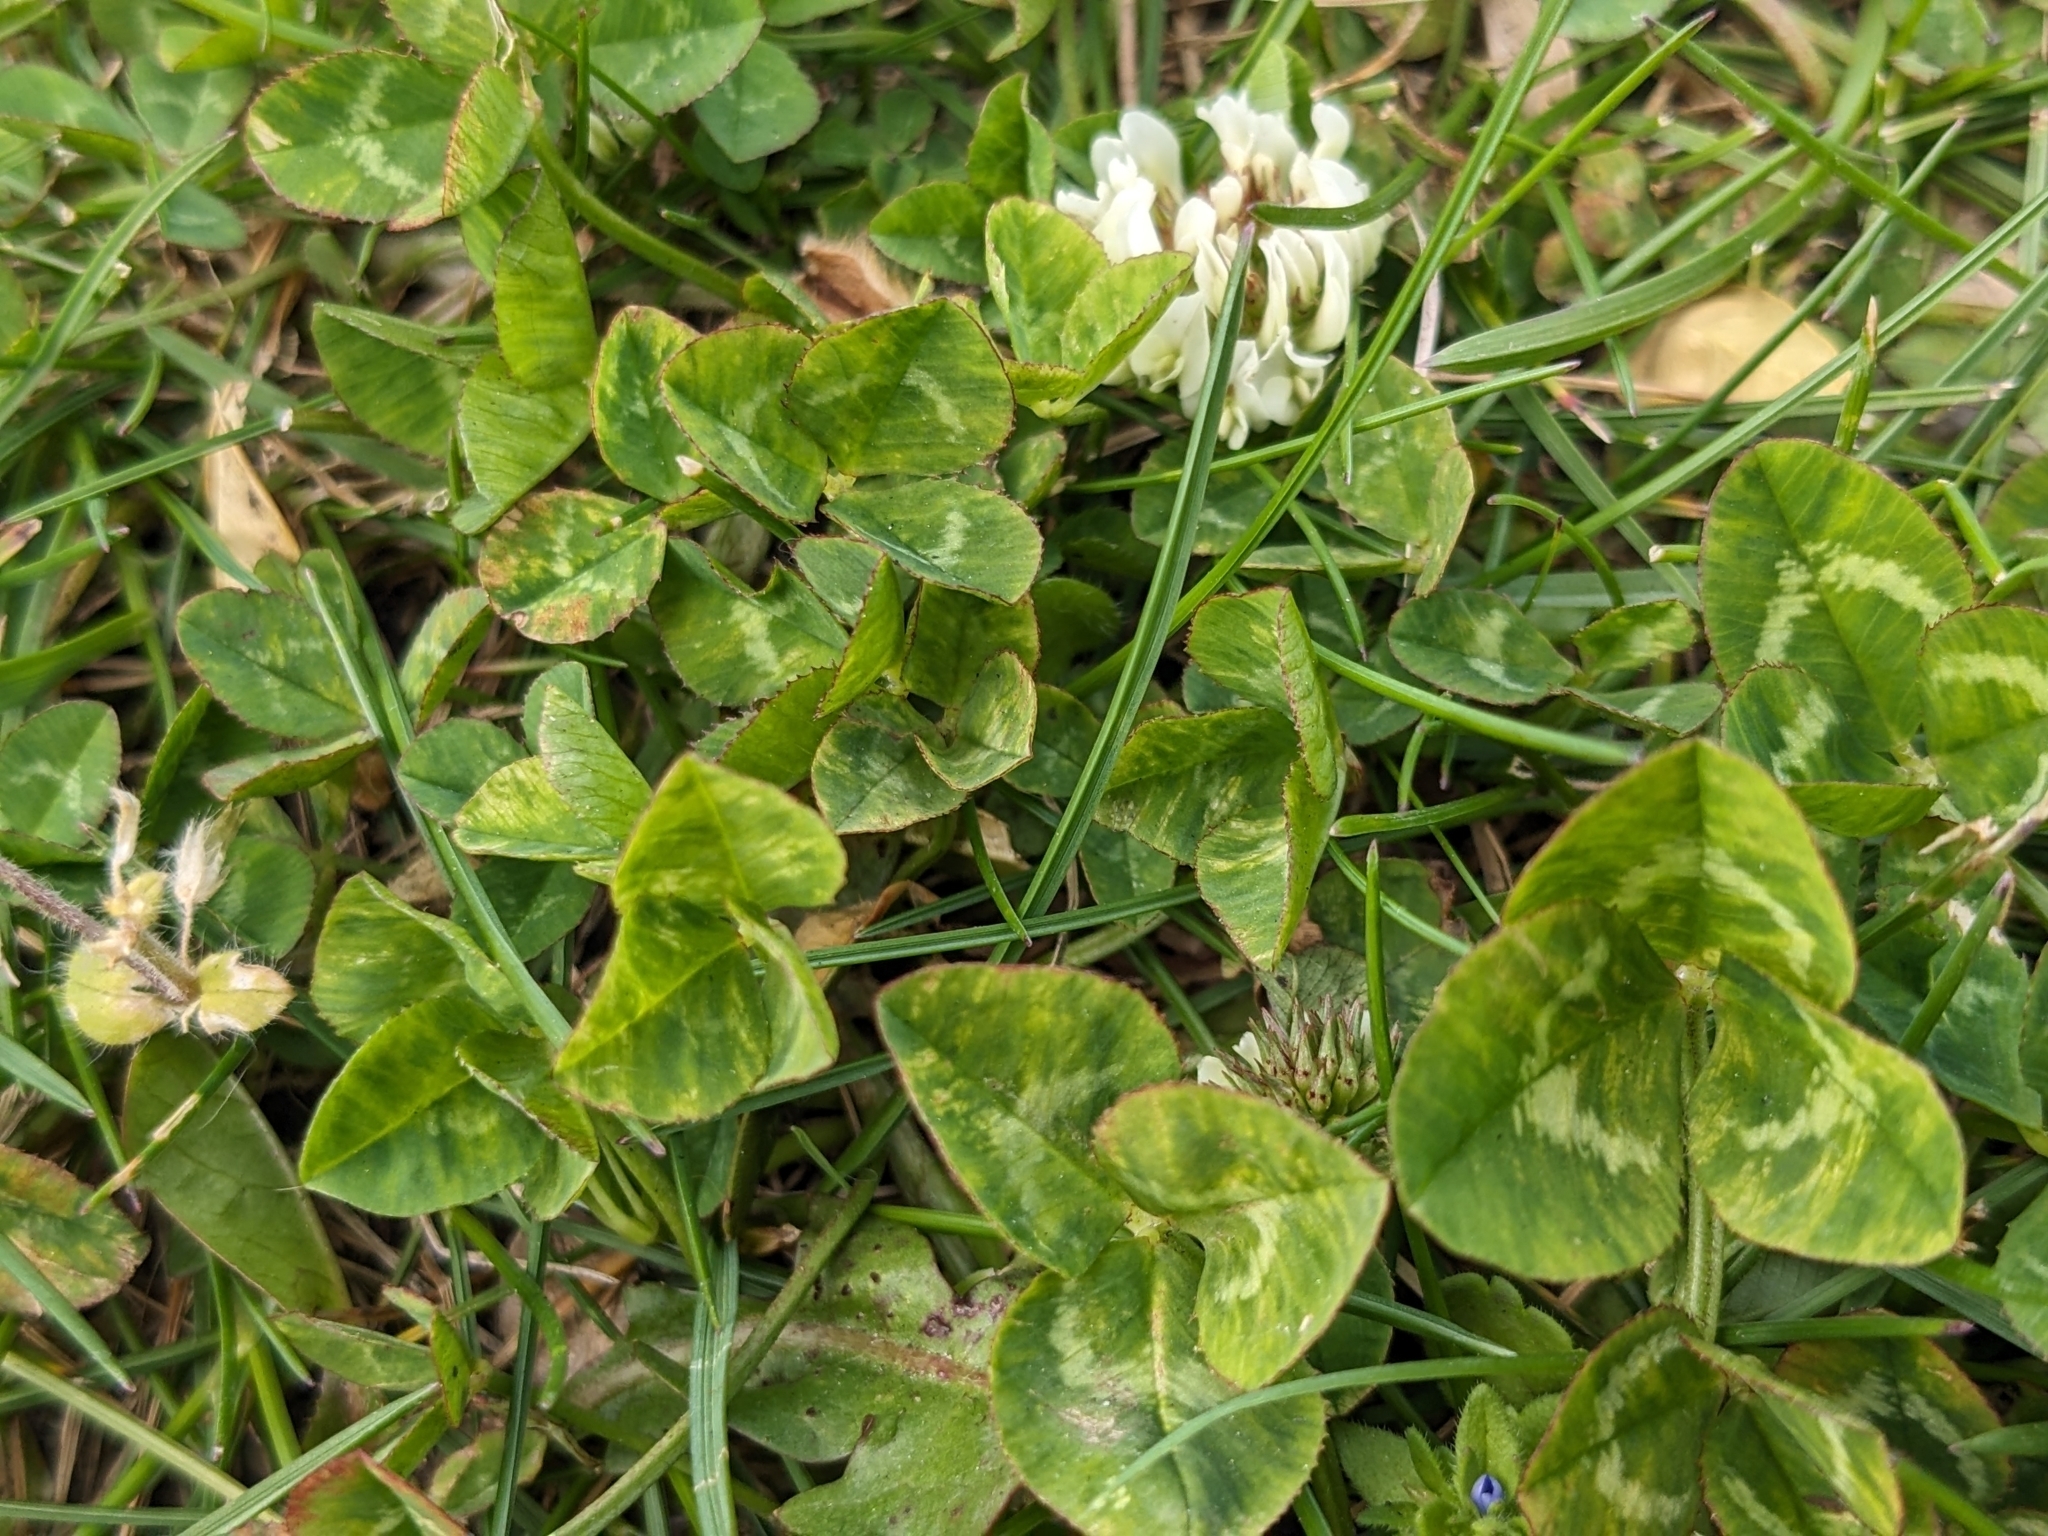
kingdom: Plantae
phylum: Tracheophyta
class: Magnoliopsida
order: Fabales
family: Fabaceae
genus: Trifolium
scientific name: Trifolium repens
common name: White clover
